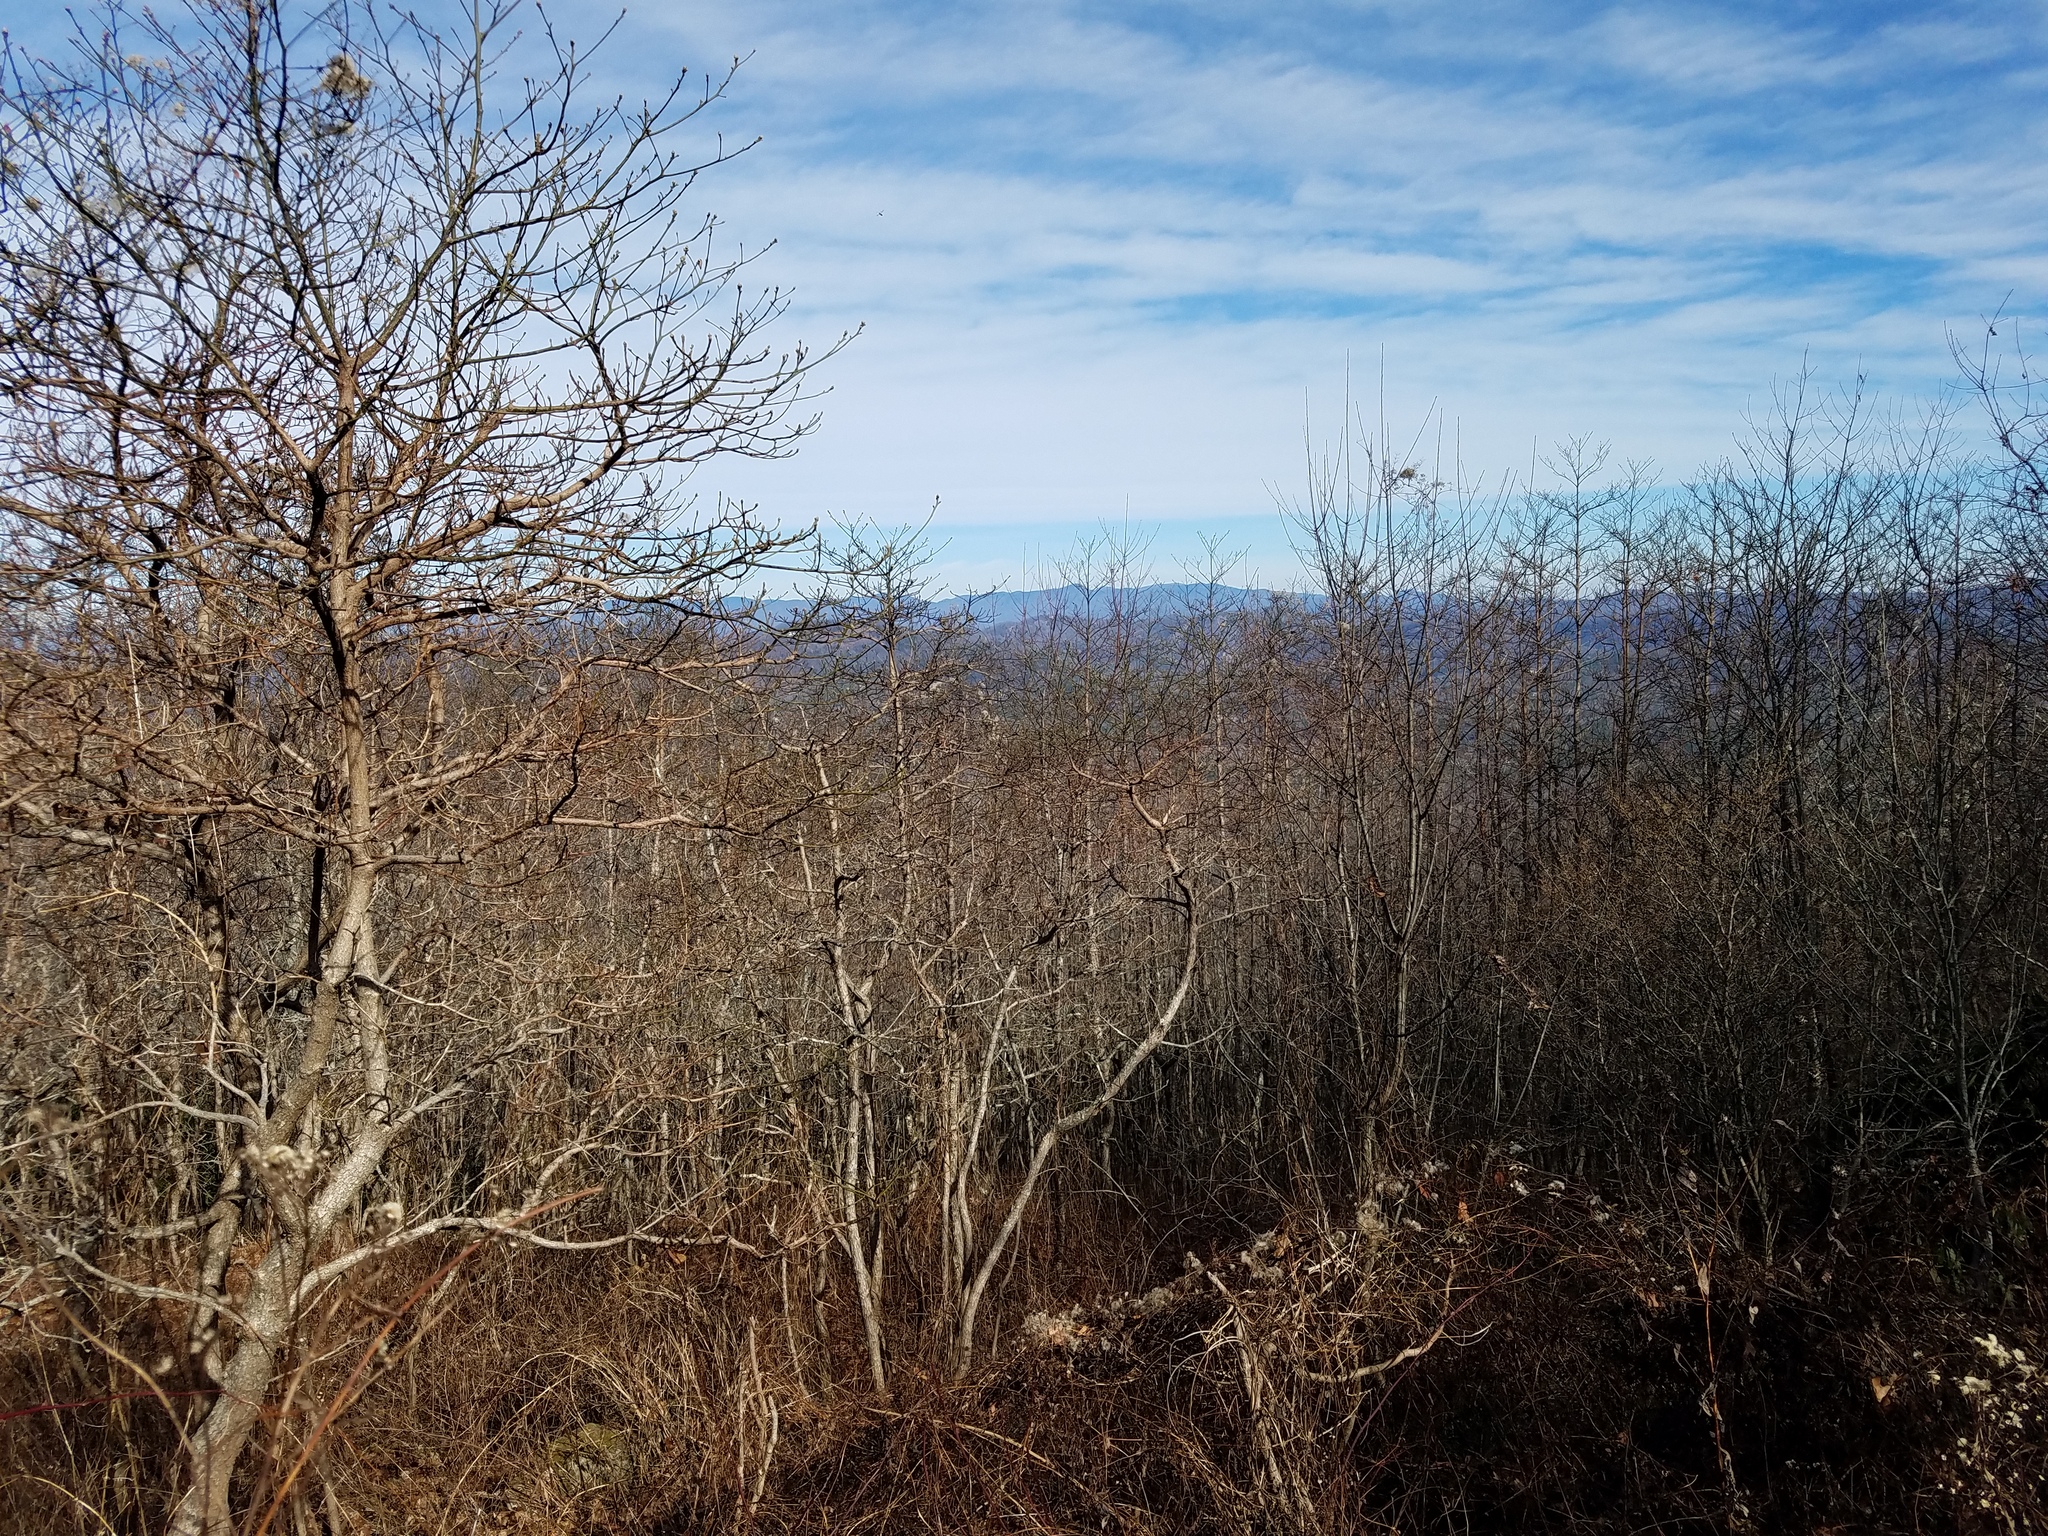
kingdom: Plantae
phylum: Tracheophyta
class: Magnoliopsida
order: Laurales
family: Lauraceae
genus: Sassafras
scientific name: Sassafras albidum
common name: Sassafras
